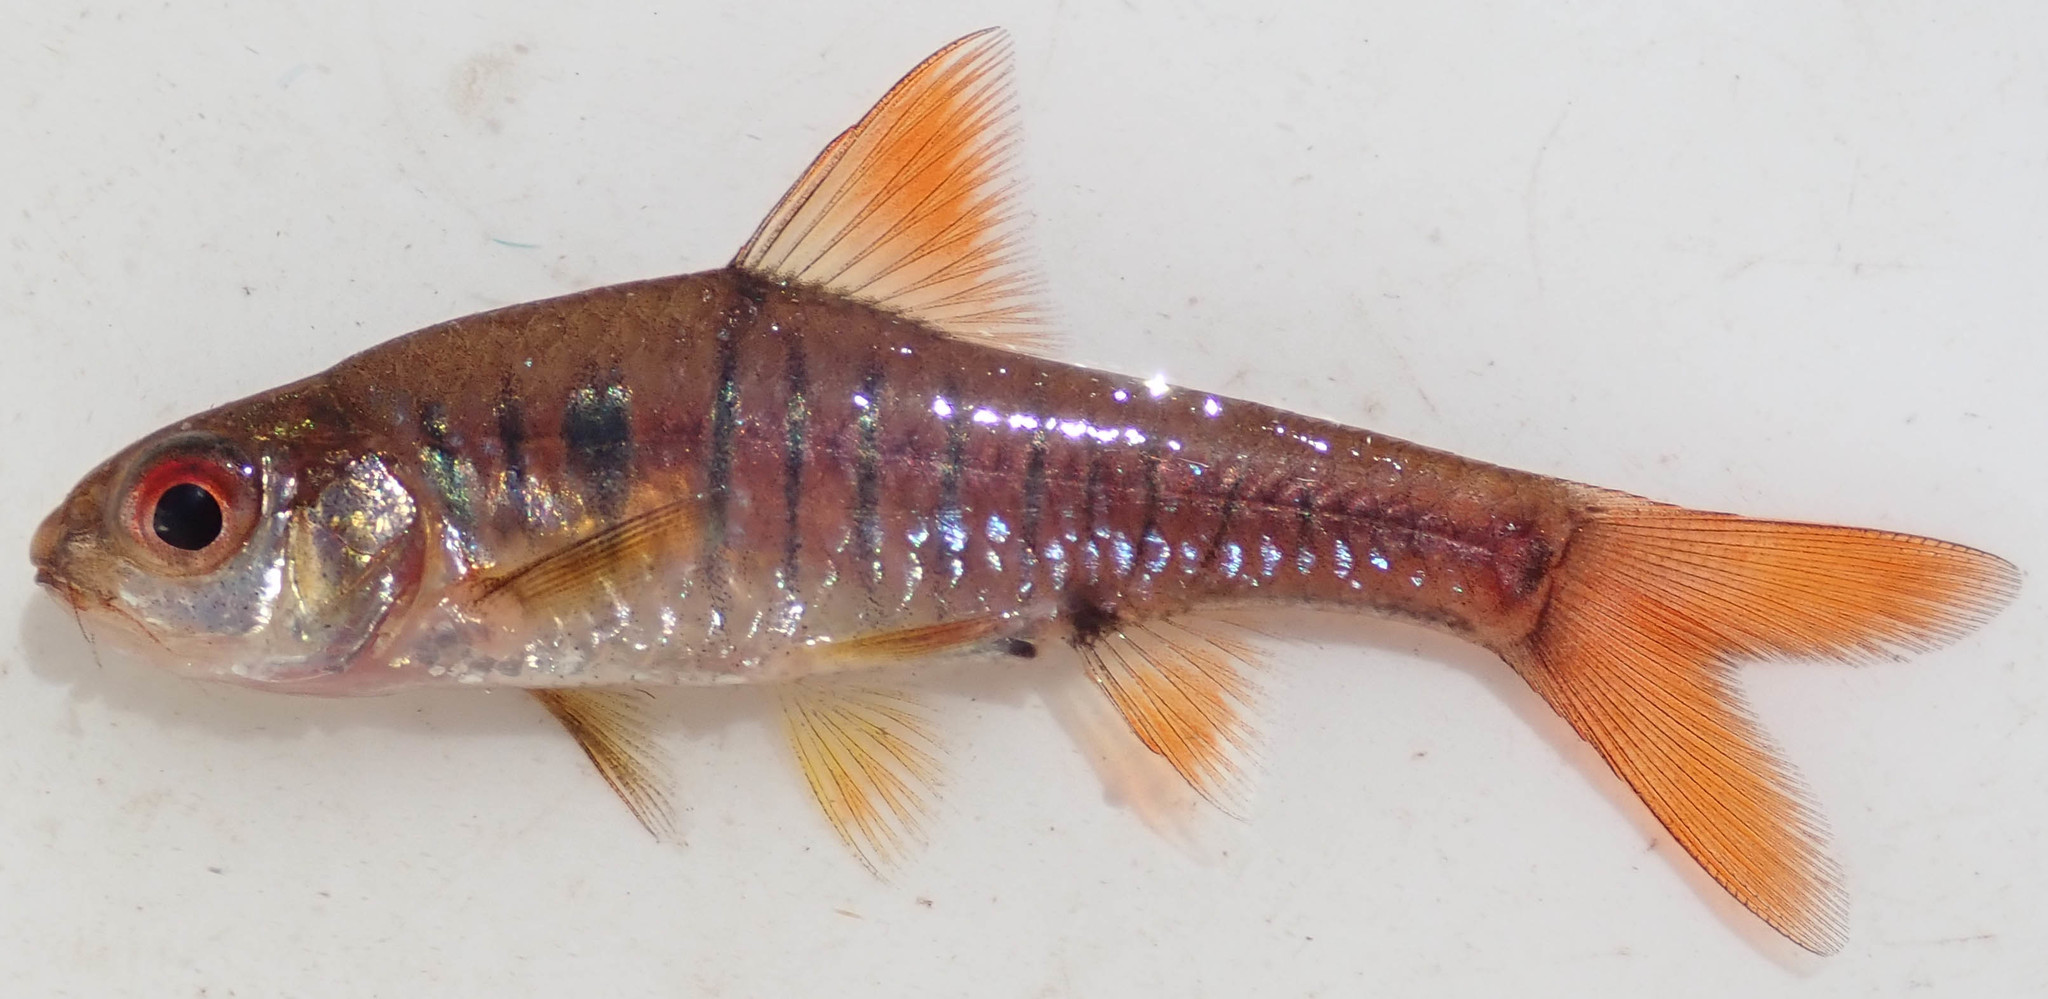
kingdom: Animalia
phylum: Chordata
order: Cypriniformes
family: Cyprinidae
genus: Enteromius
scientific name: Enteromius fasciolatus
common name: Red barb
